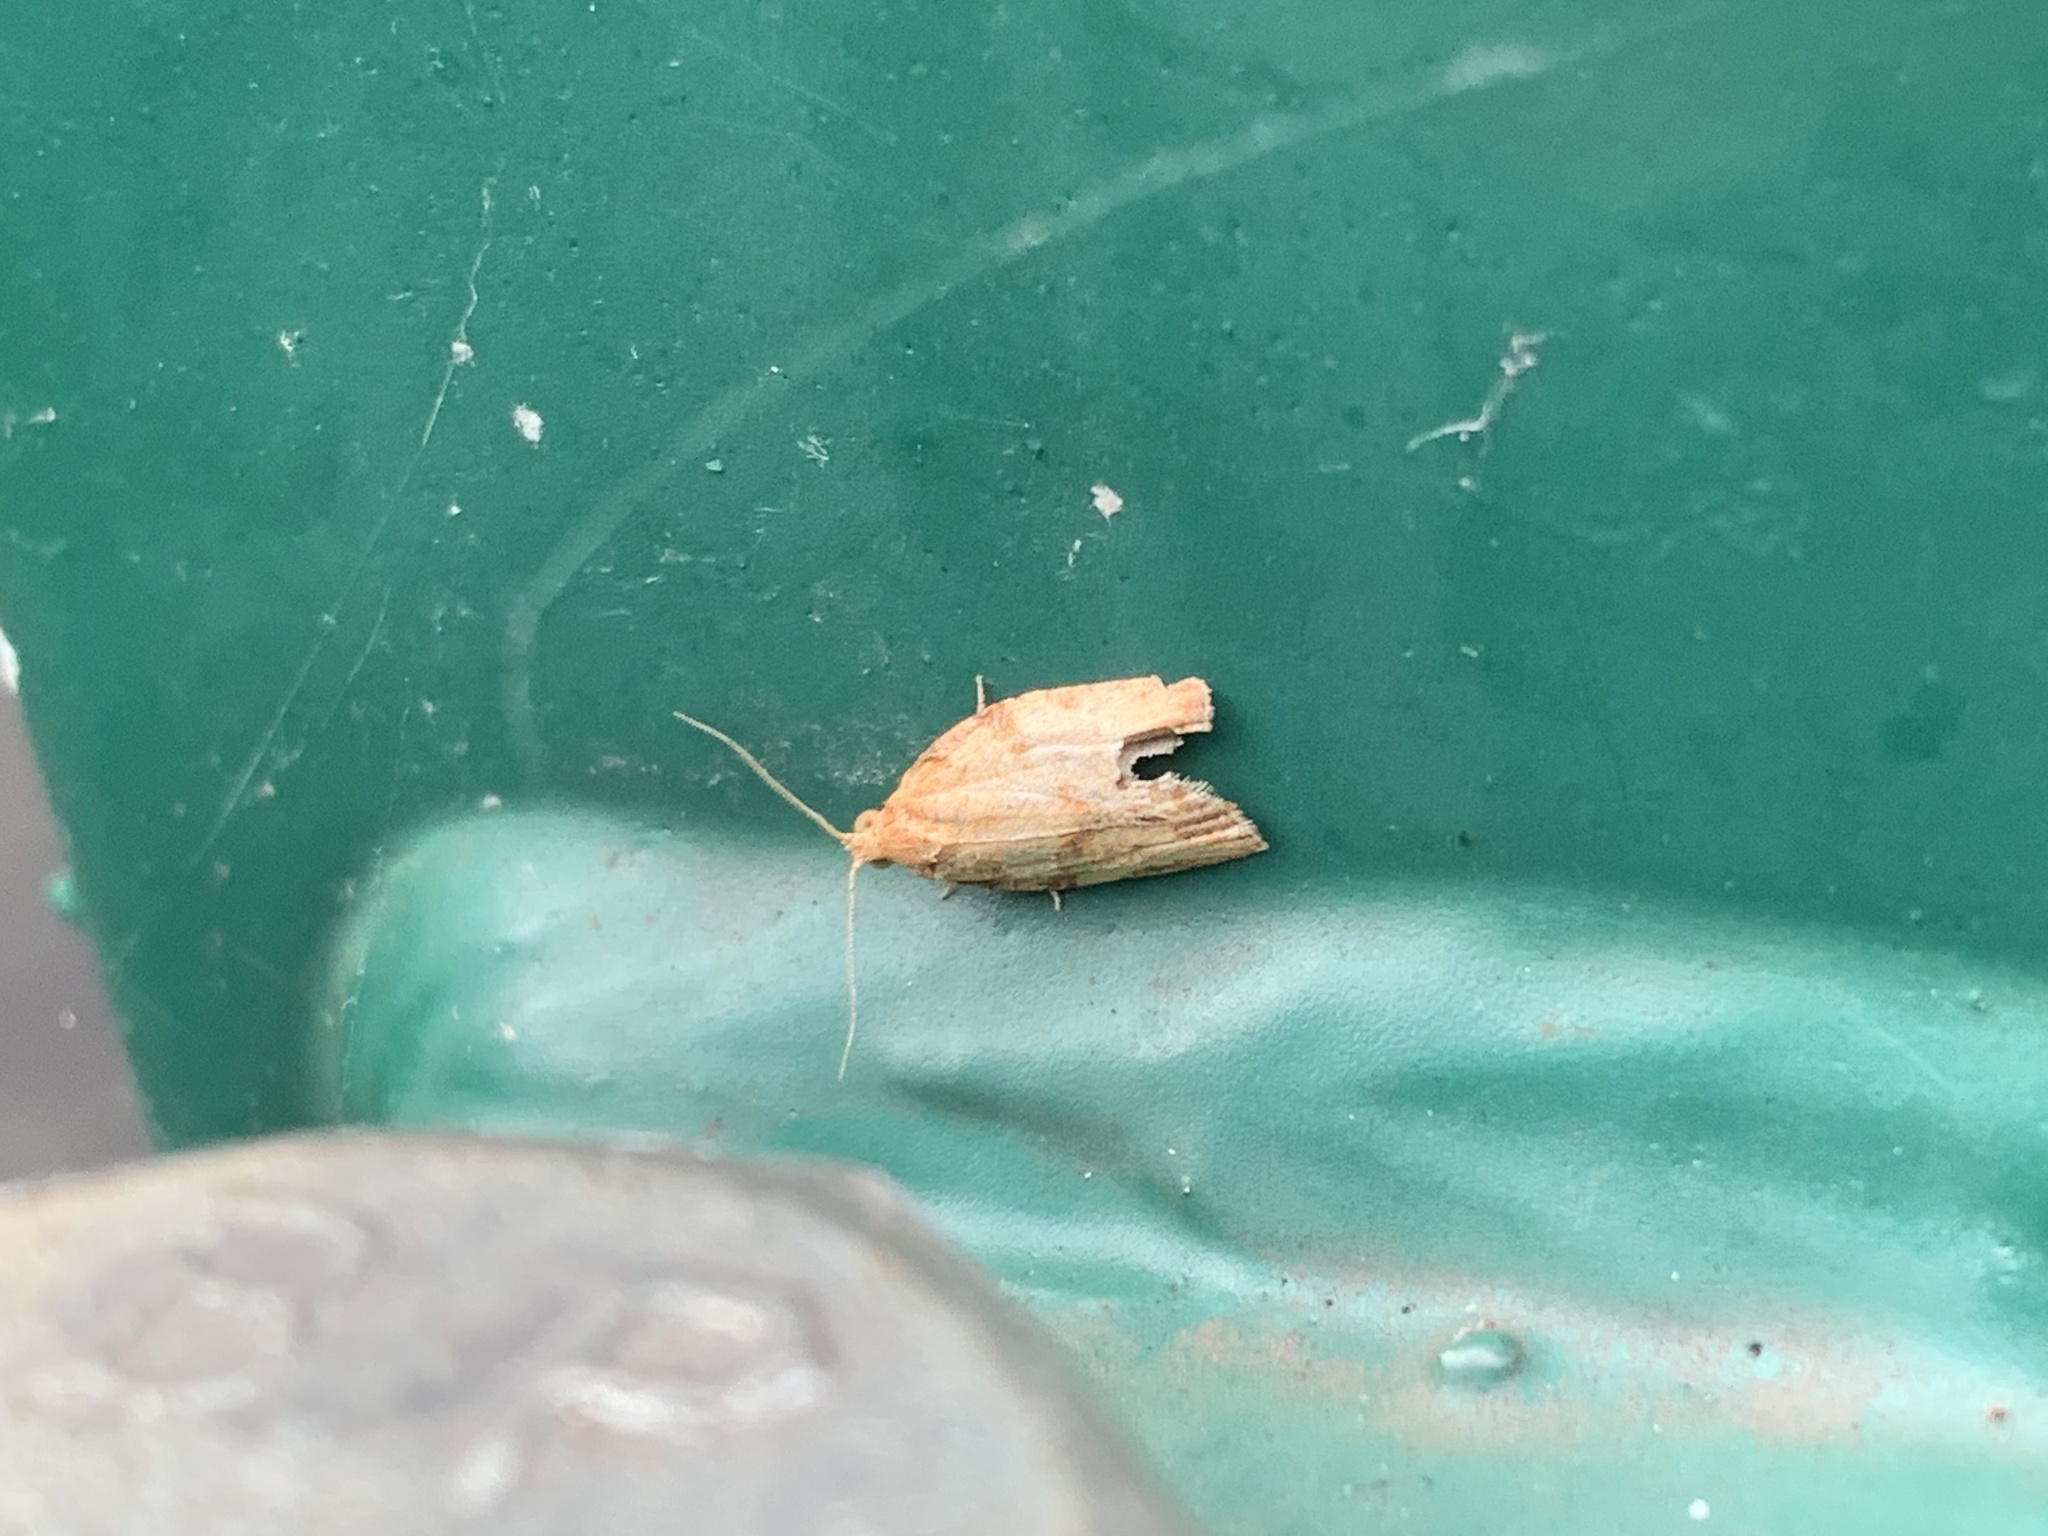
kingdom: Animalia
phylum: Arthropoda
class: Insecta
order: Lepidoptera
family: Tortricidae
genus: Epiphyas
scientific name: Epiphyas postvittana
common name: Light brown apple moth
